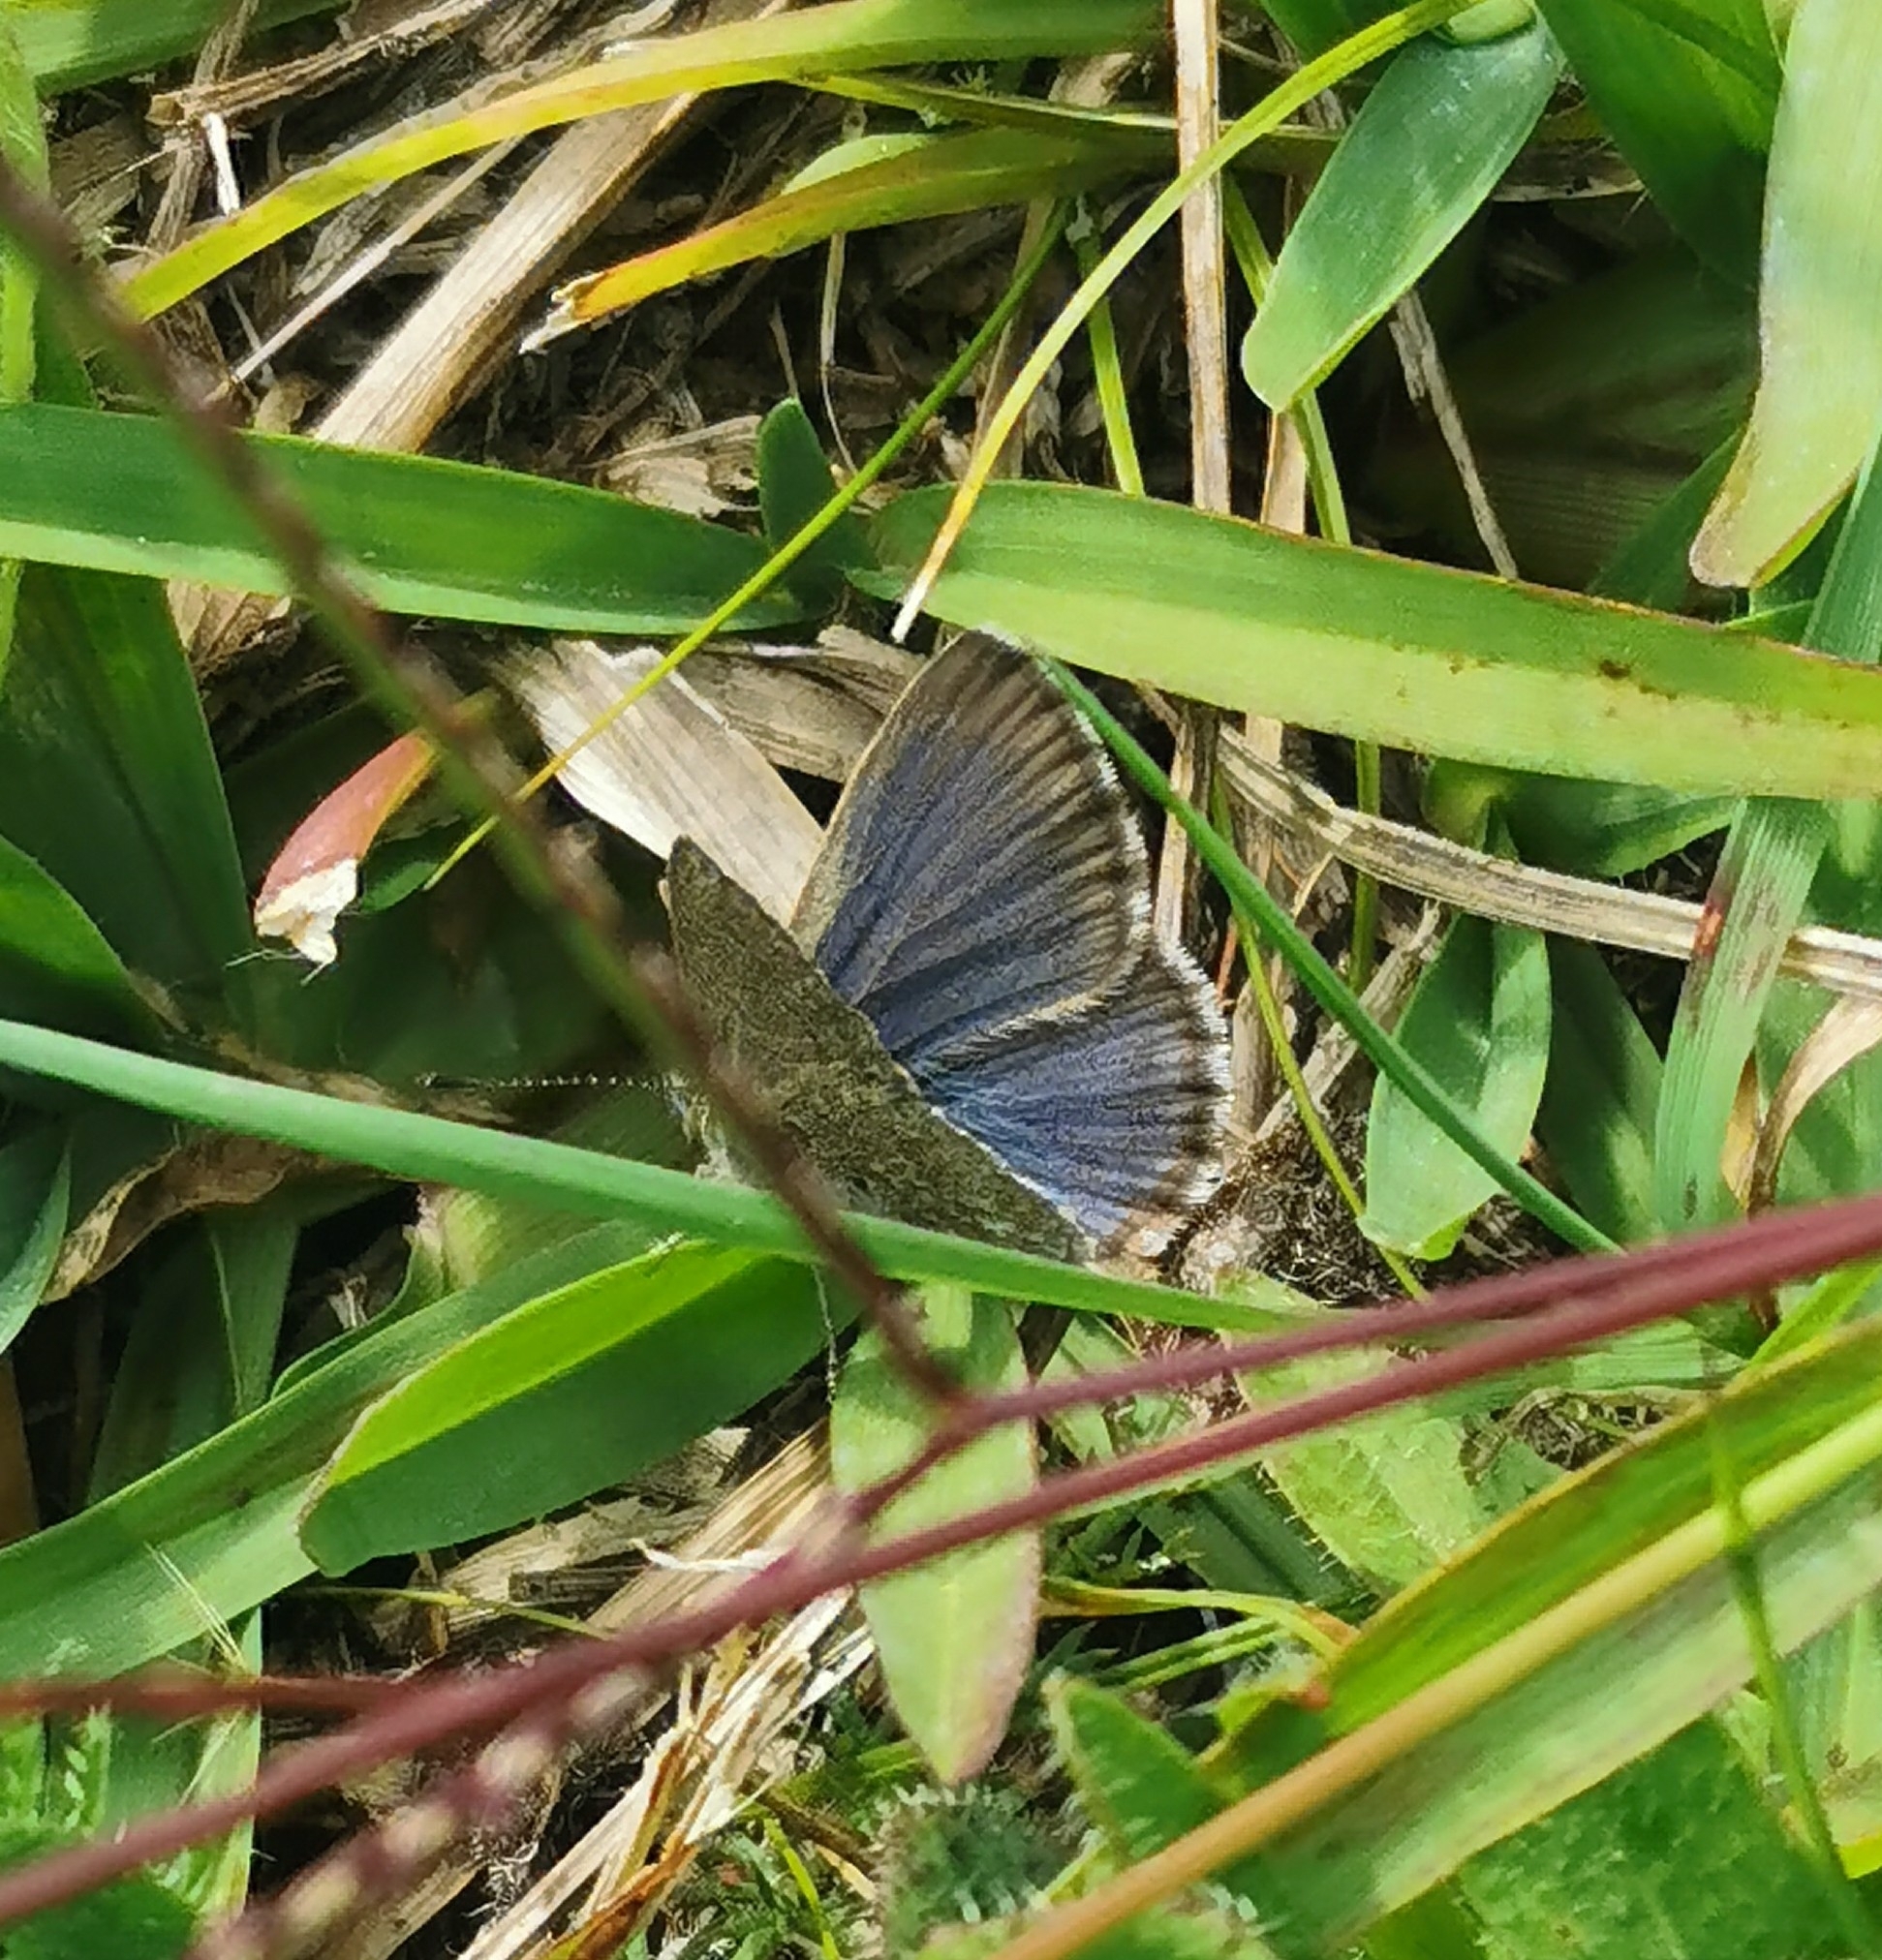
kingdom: Animalia
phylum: Arthropoda
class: Insecta
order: Lepidoptera
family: Lycaenidae
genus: Zizina
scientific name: Zizina labradus
